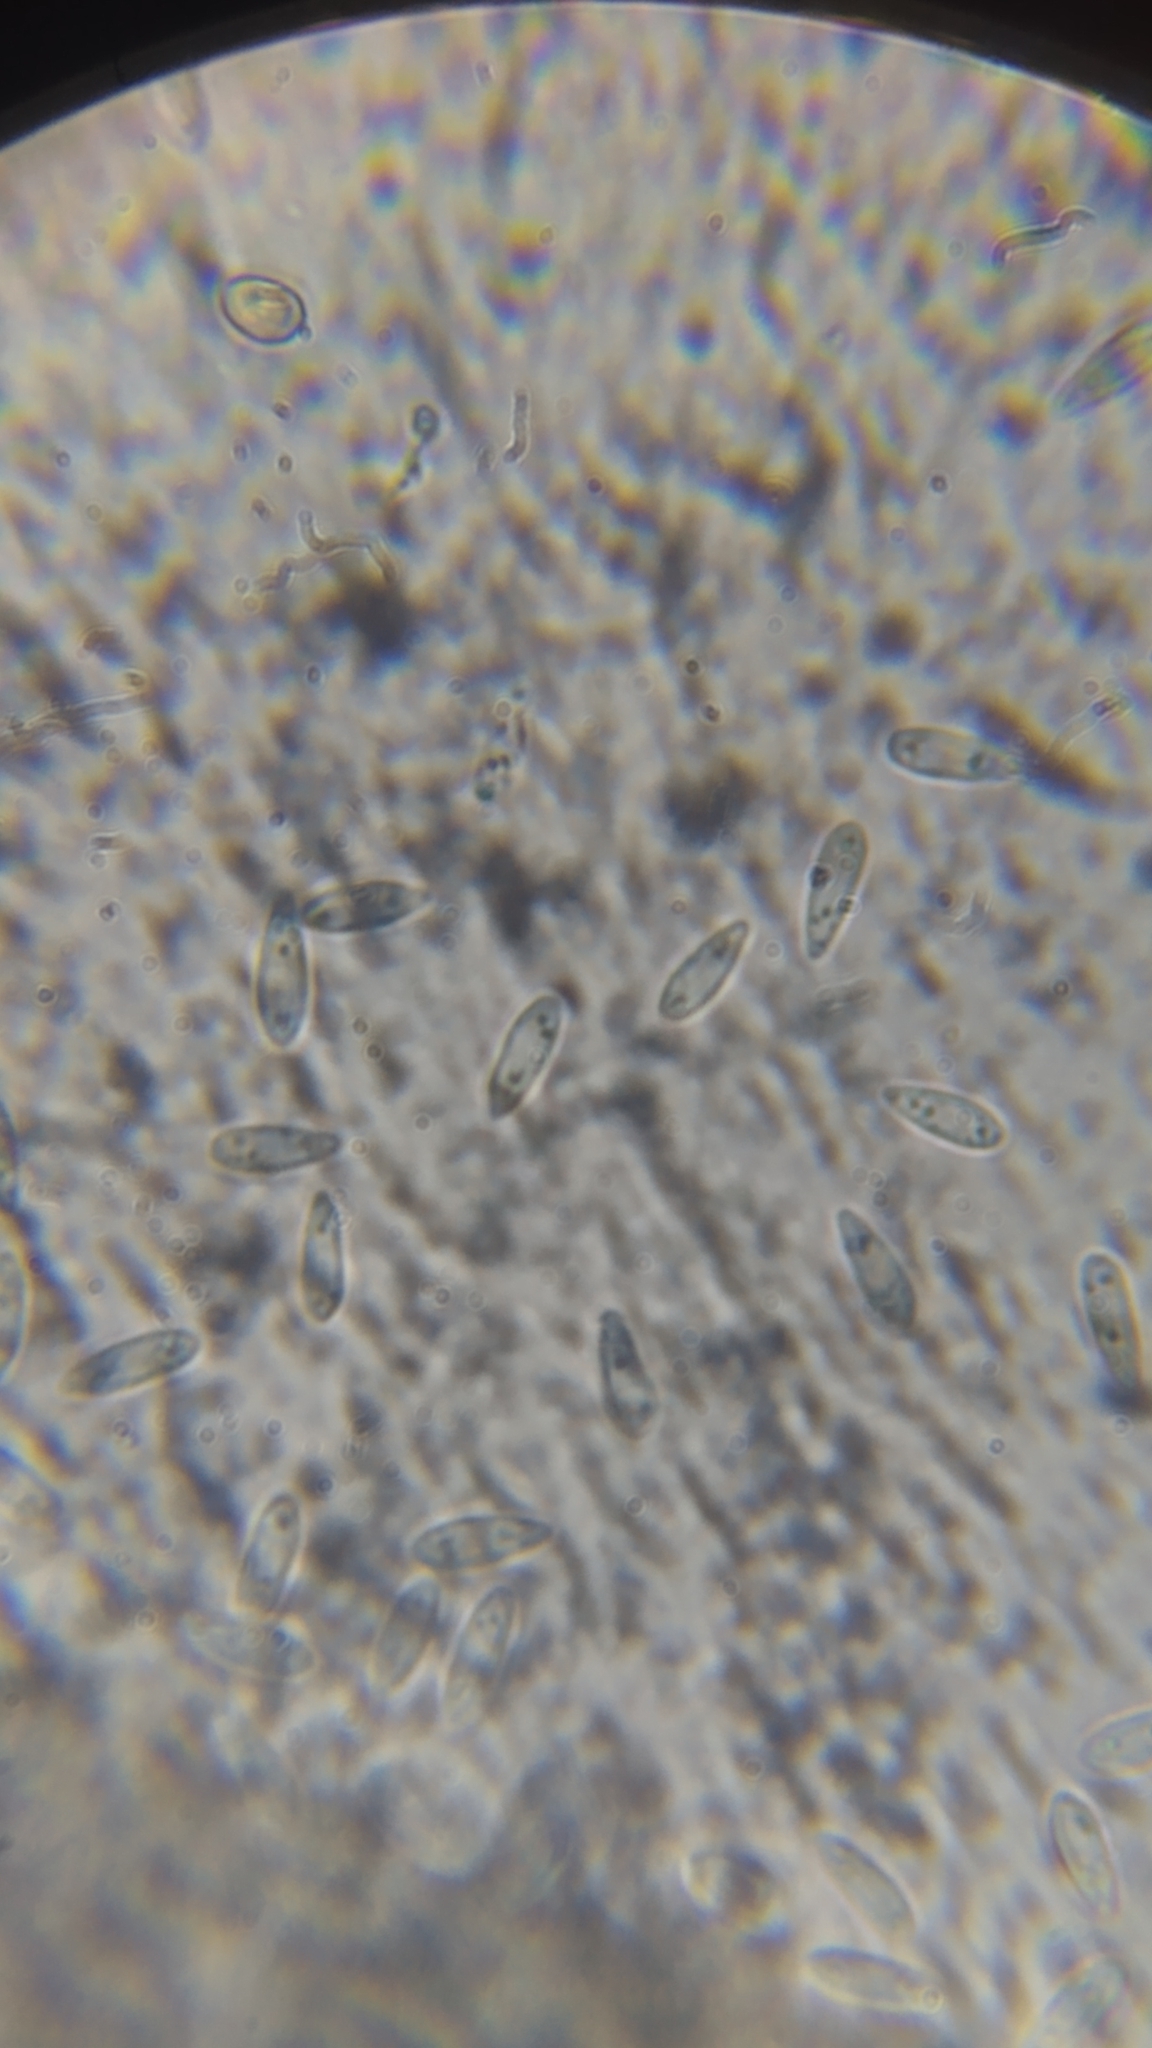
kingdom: Fungi
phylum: Ascomycota
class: Leotiomycetes
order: Helotiales
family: Helotiaceae
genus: Hymenoscyphus
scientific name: Hymenoscyphus fructigenus
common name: Nut disco
